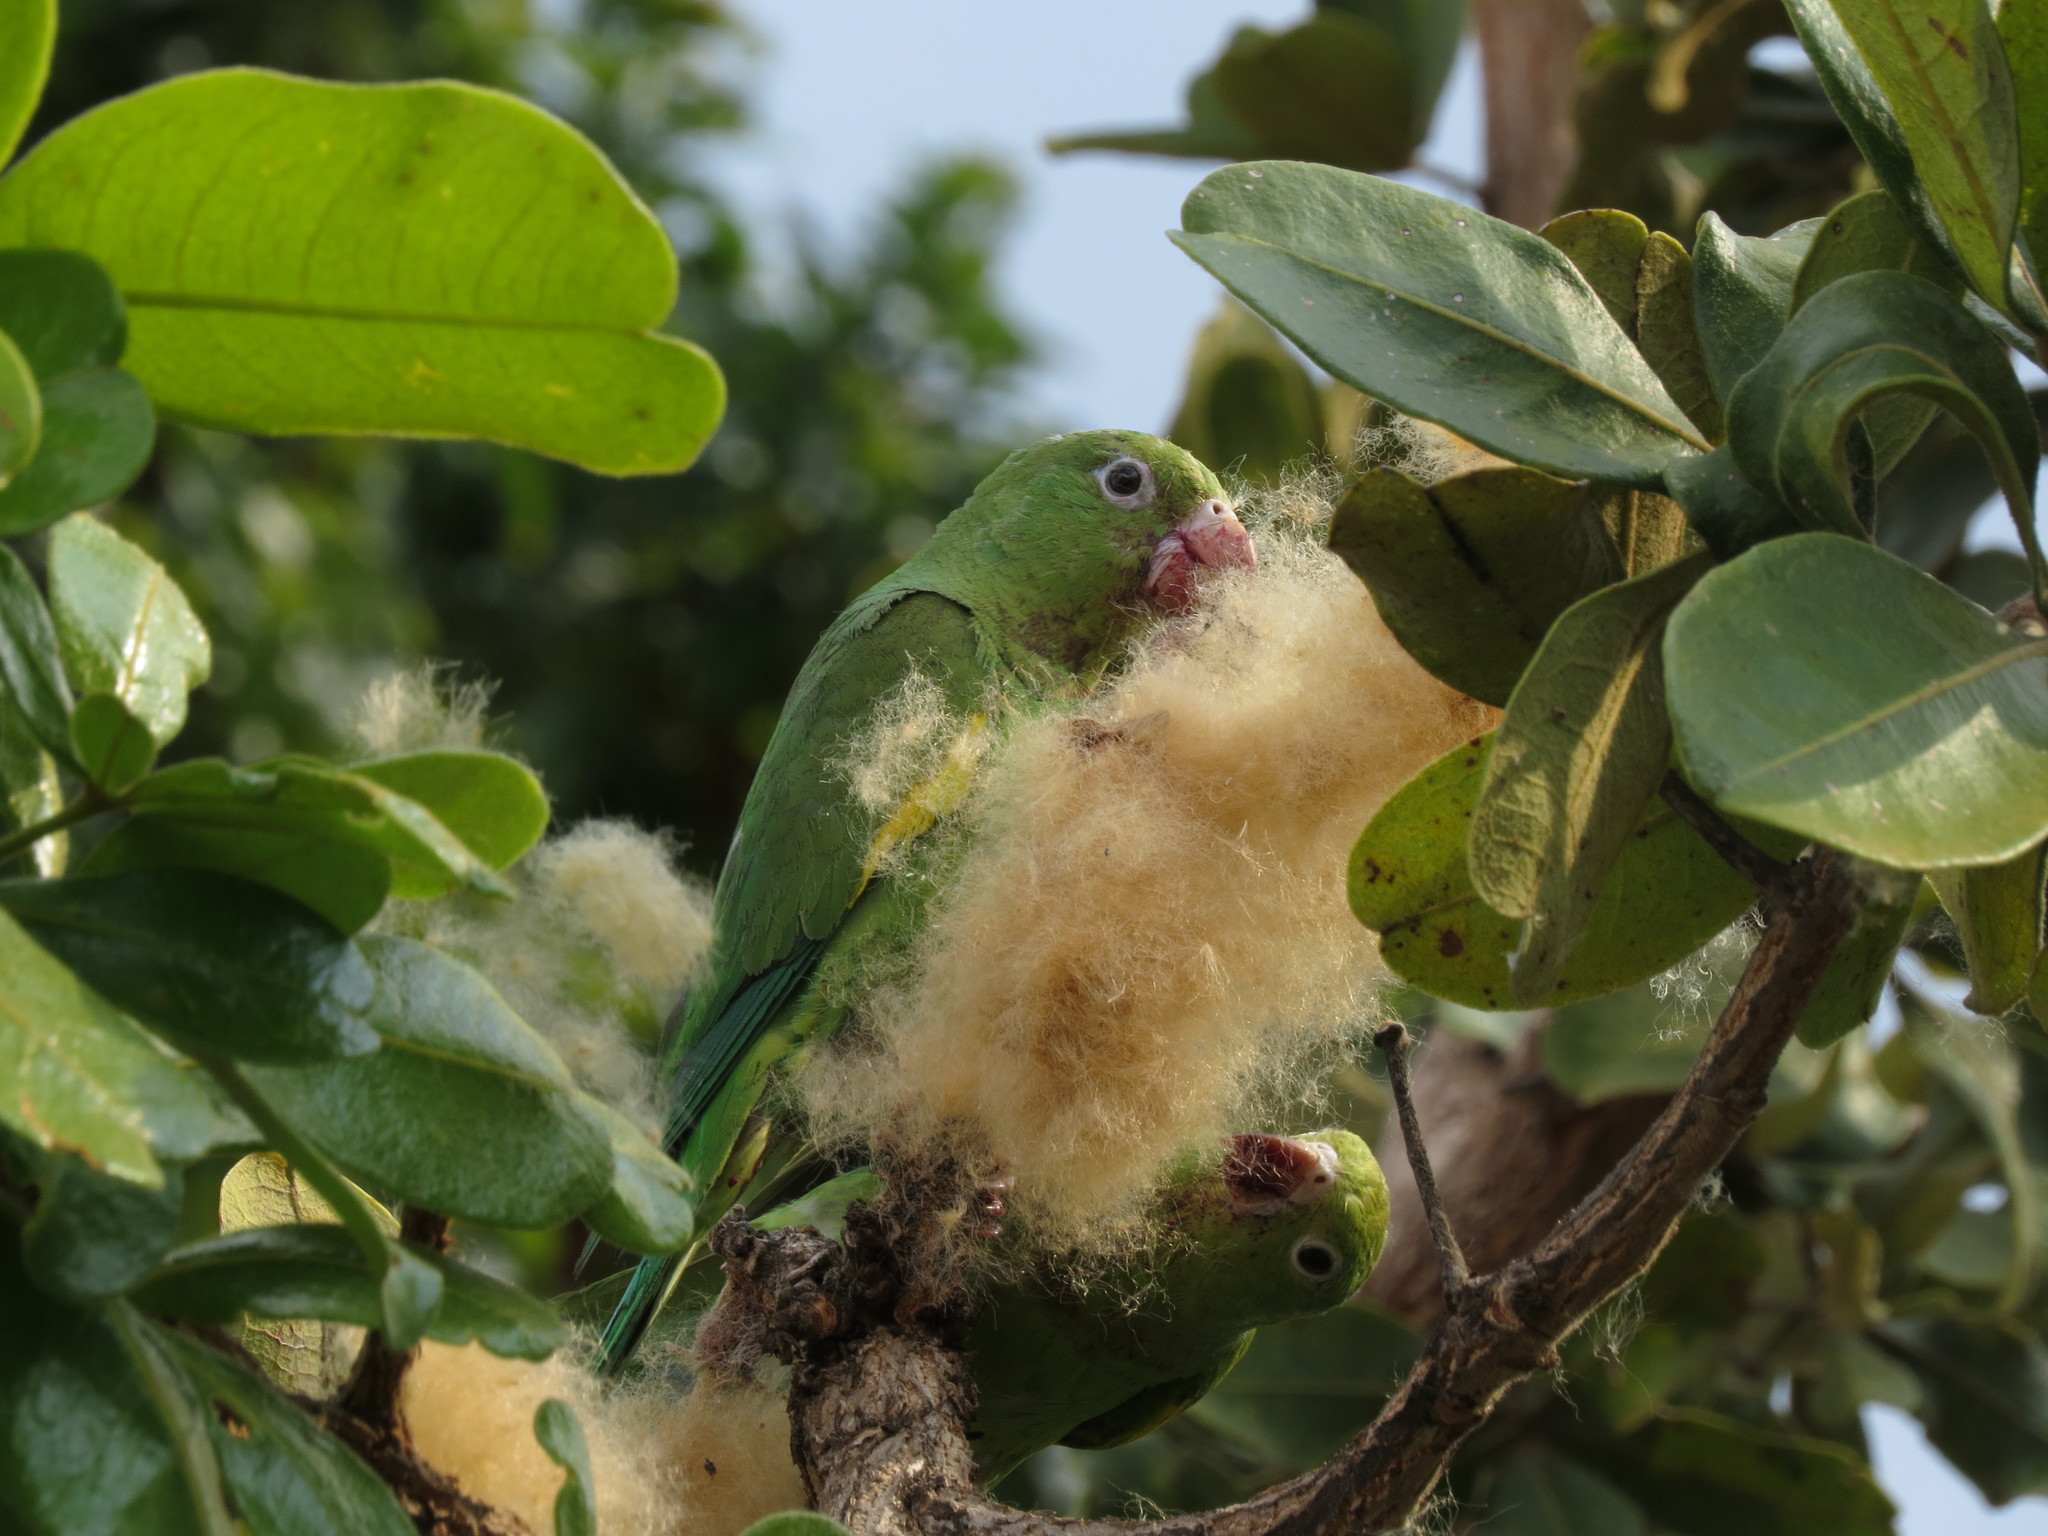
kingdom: Animalia
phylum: Chordata
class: Aves
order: Psittaciformes
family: Psittacidae
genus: Brotogeris
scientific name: Brotogeris chiriri
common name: Yellow-chevroned parakeet
